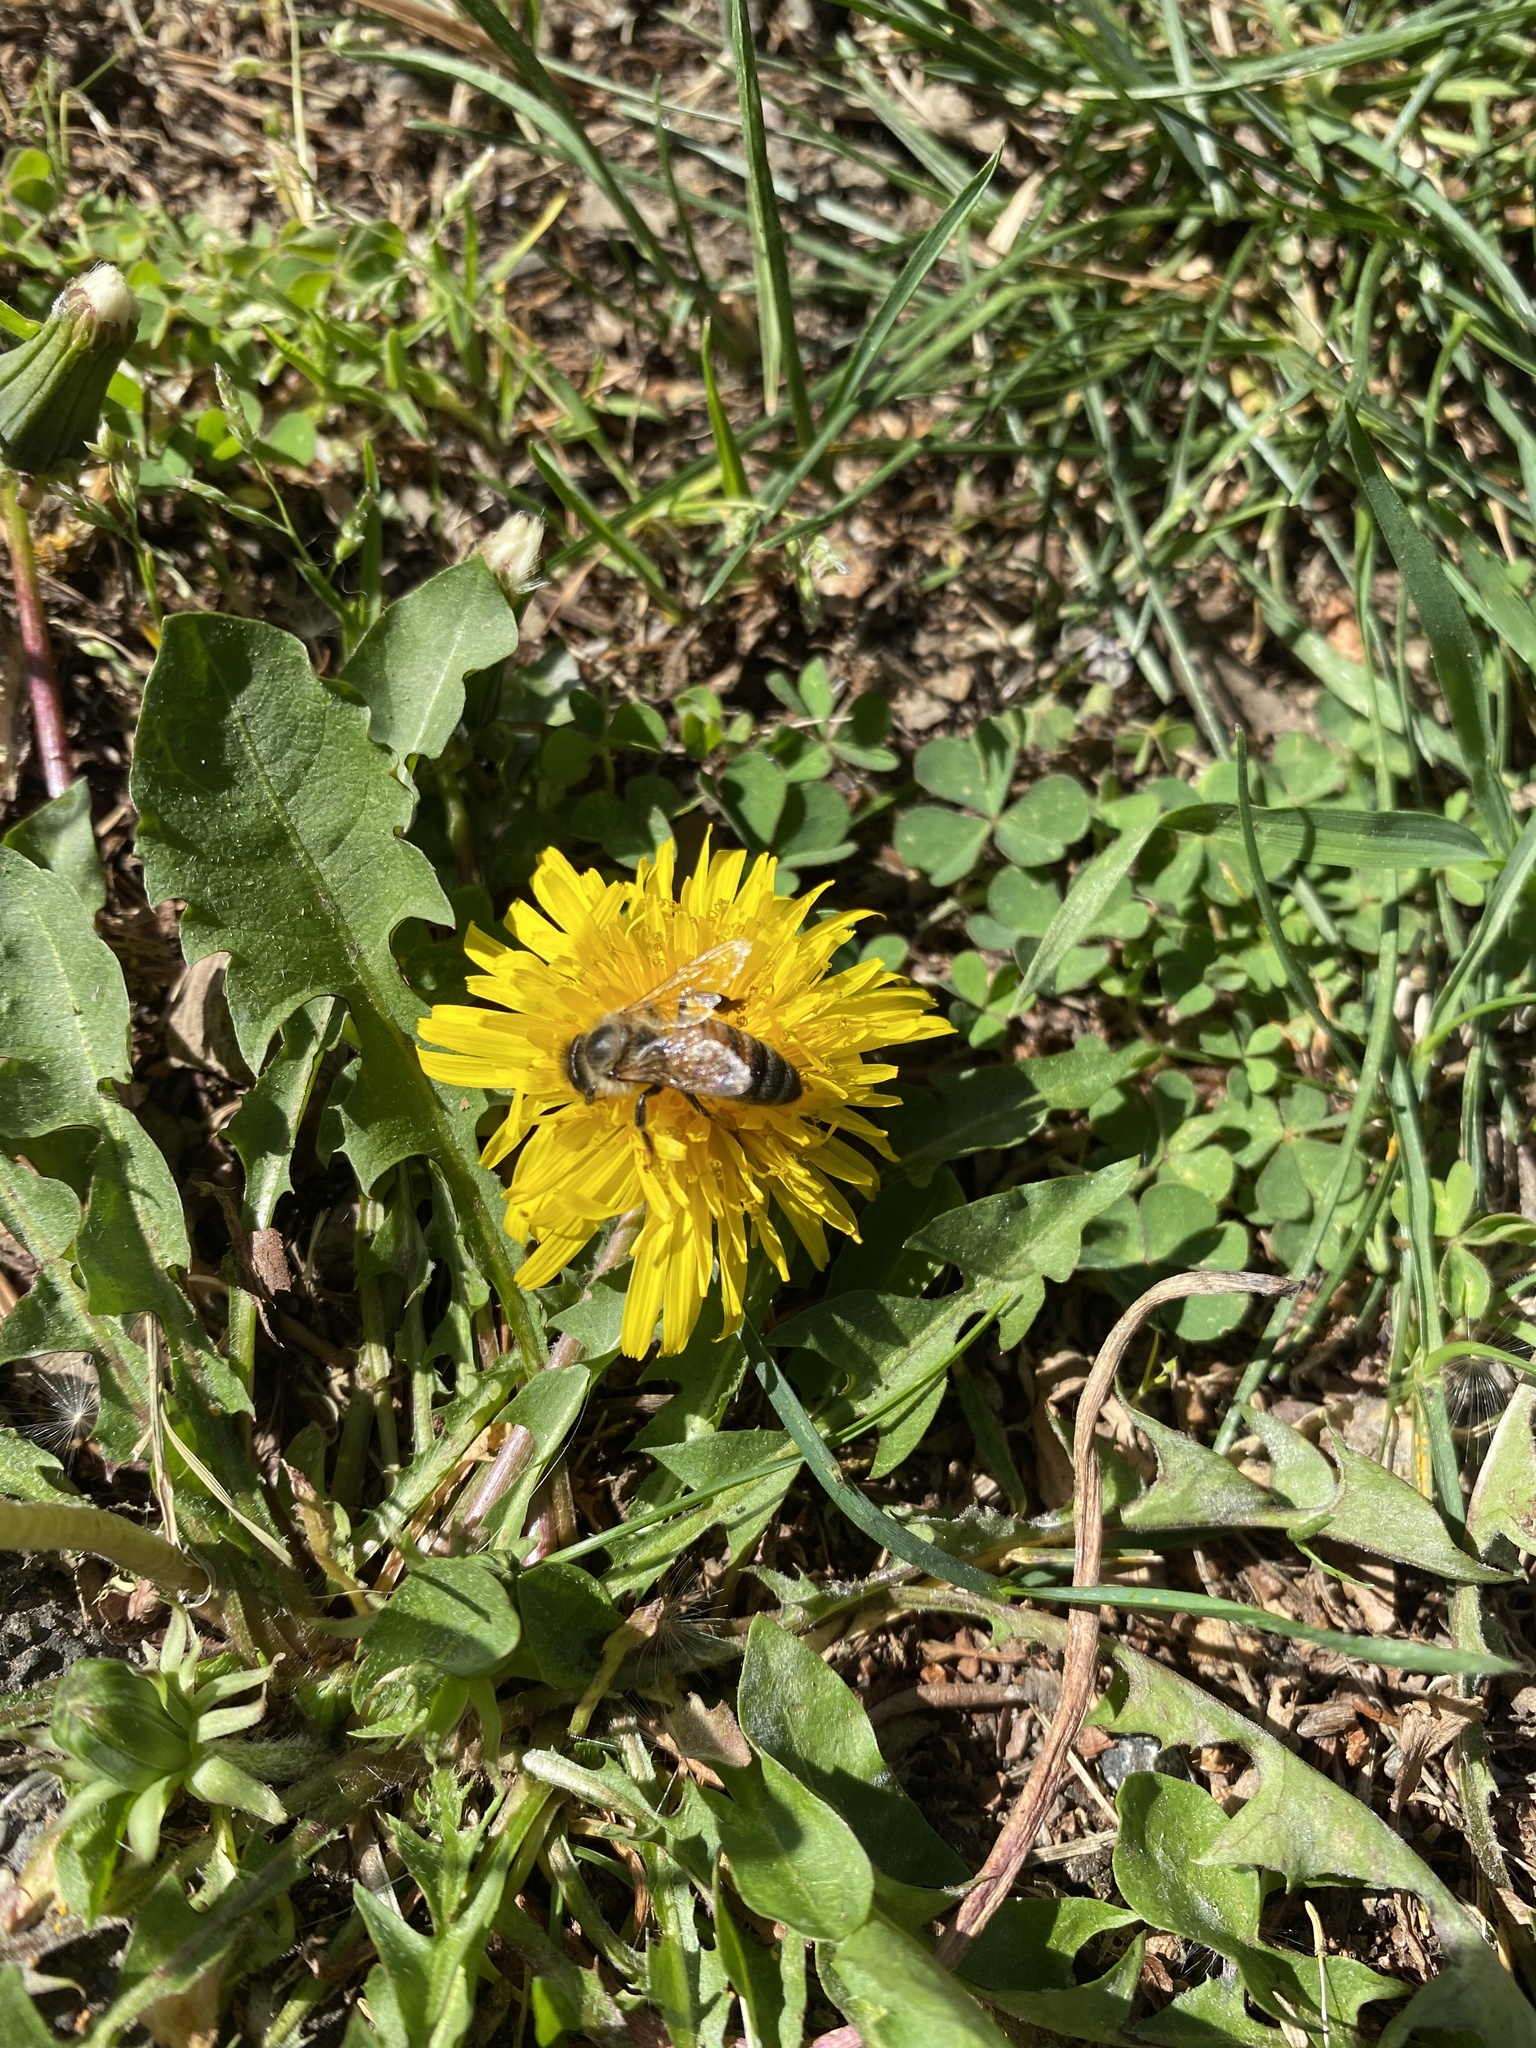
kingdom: Animalia
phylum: Arthropoda
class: Insecta
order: Hymenoptera
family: Apidae
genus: Apis
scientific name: Apis mellifera
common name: Honey bee
